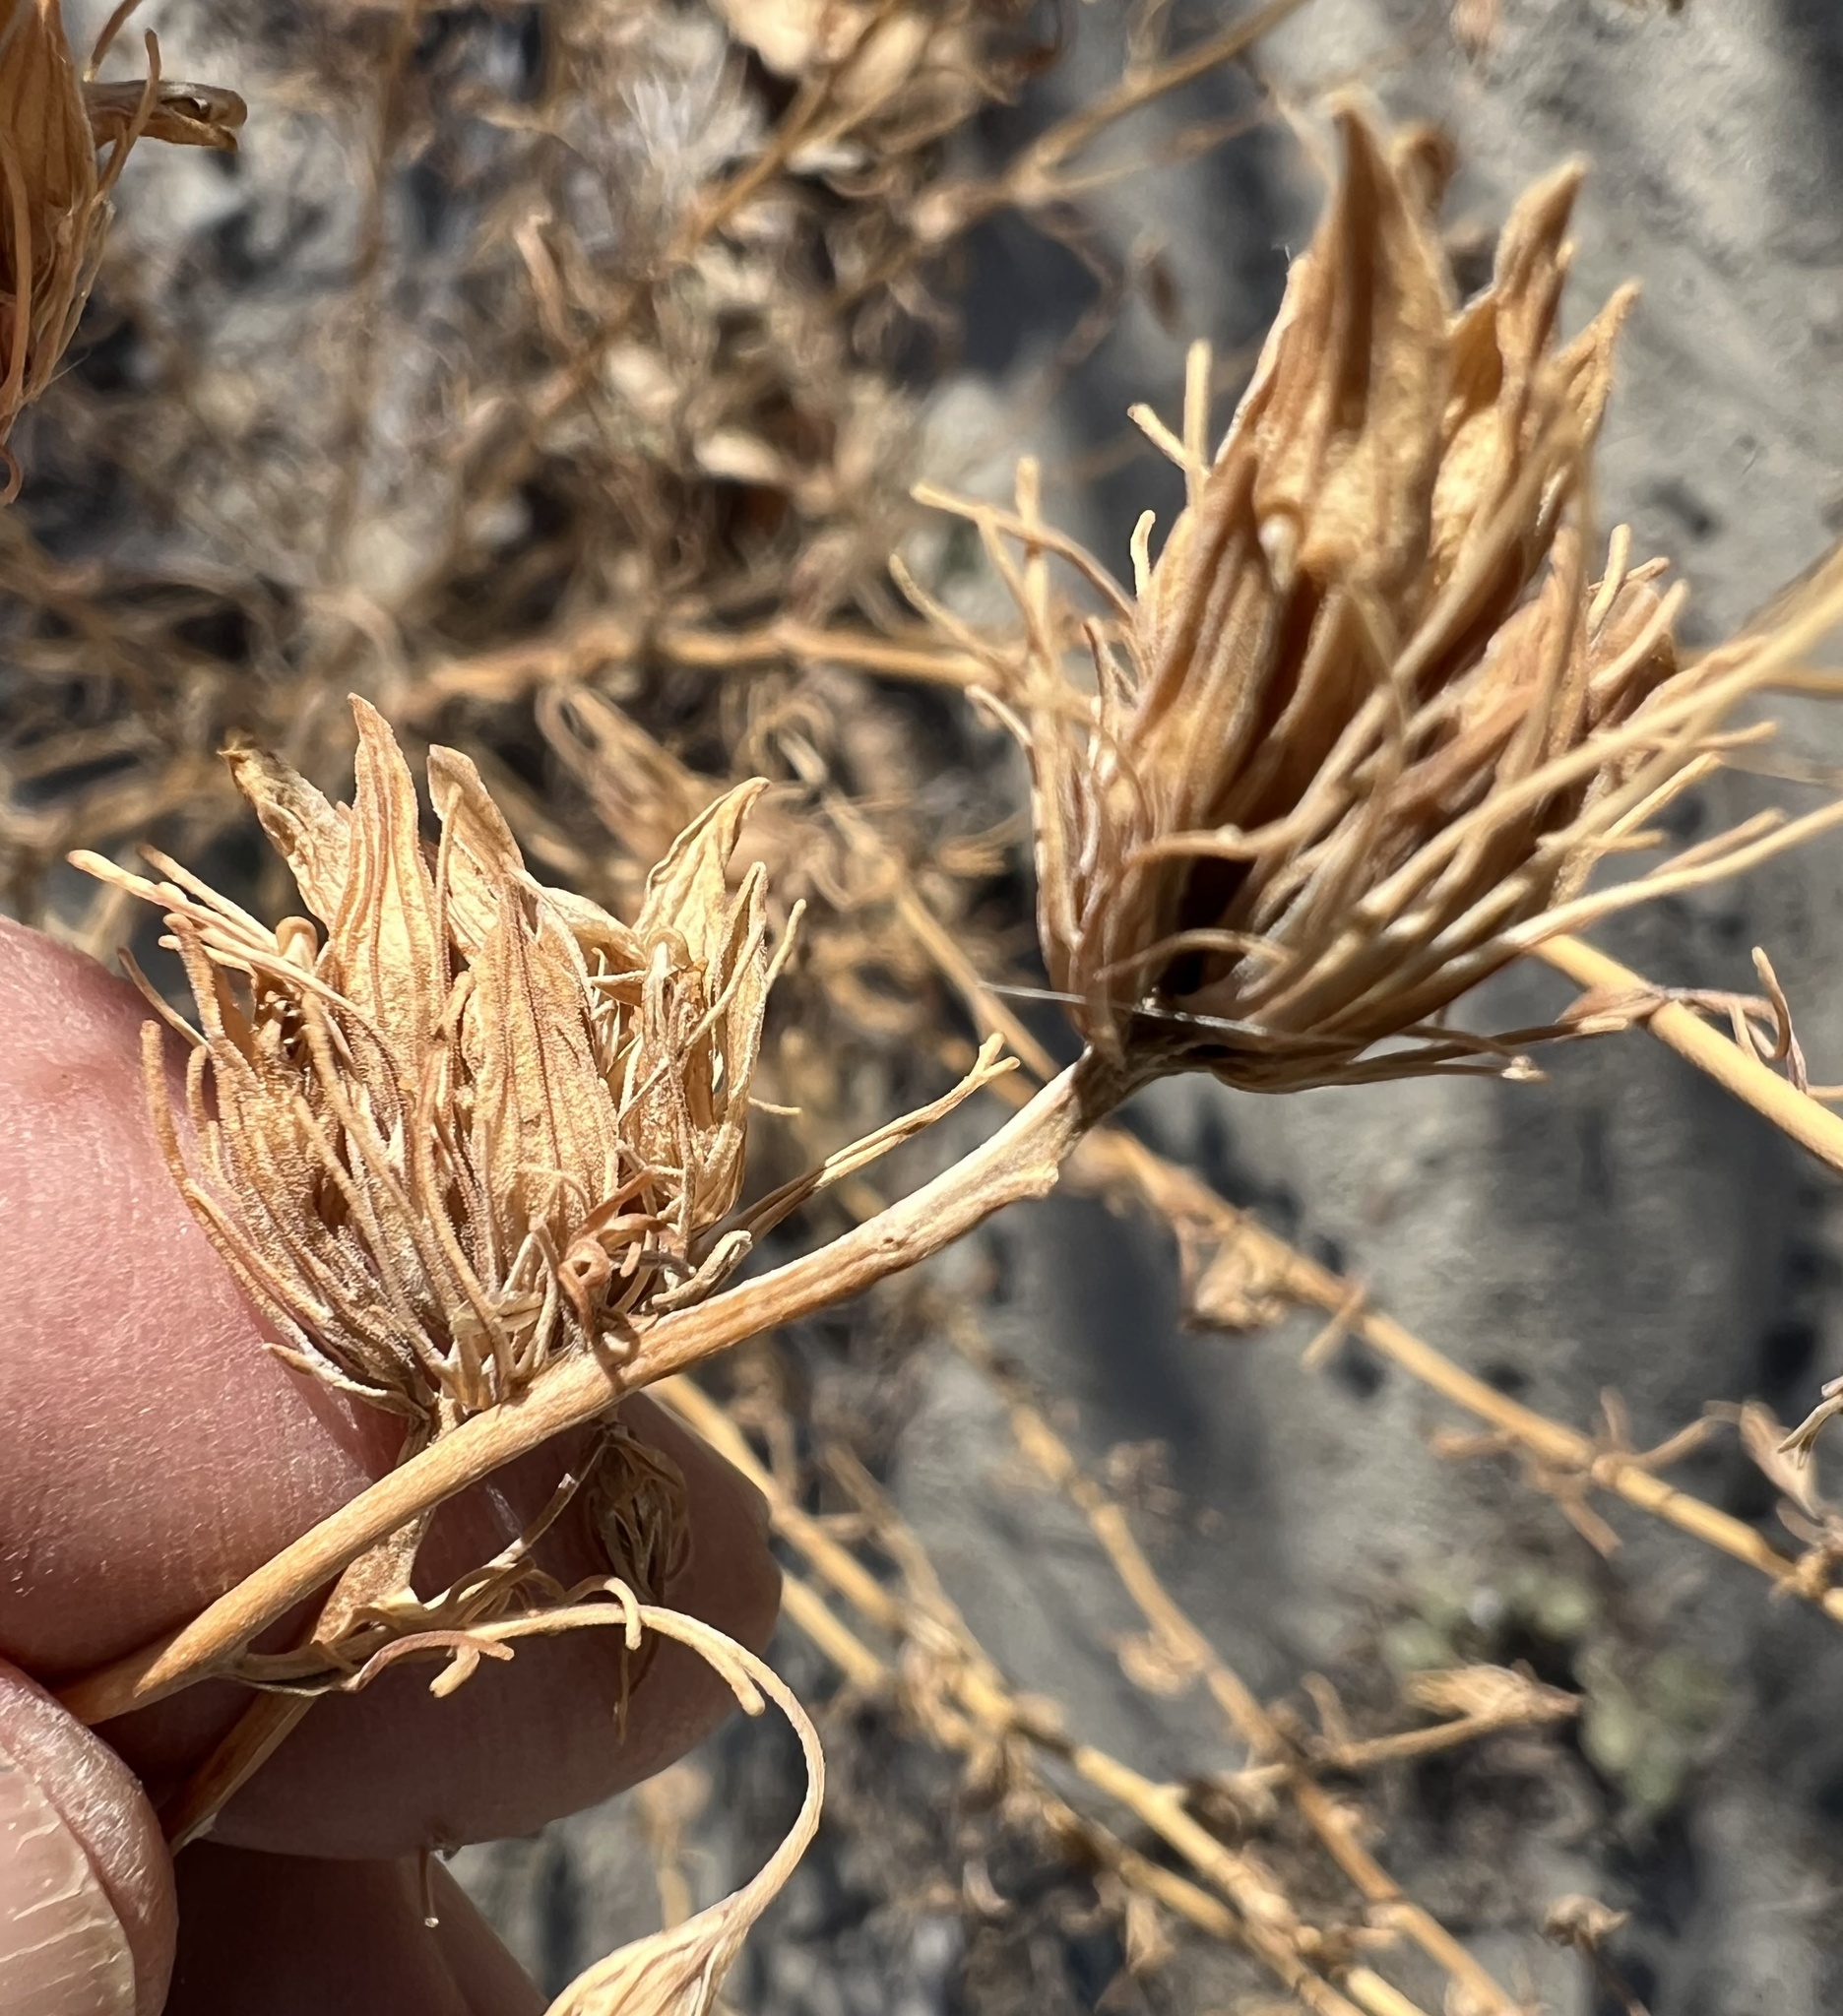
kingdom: Plantae
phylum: Tracheophyta
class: Magnoliopsida
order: Lamiales
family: Orobanchaceae
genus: Cordylanthus
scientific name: Cordylanthus ramosus
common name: Much-branched bird's-beak
